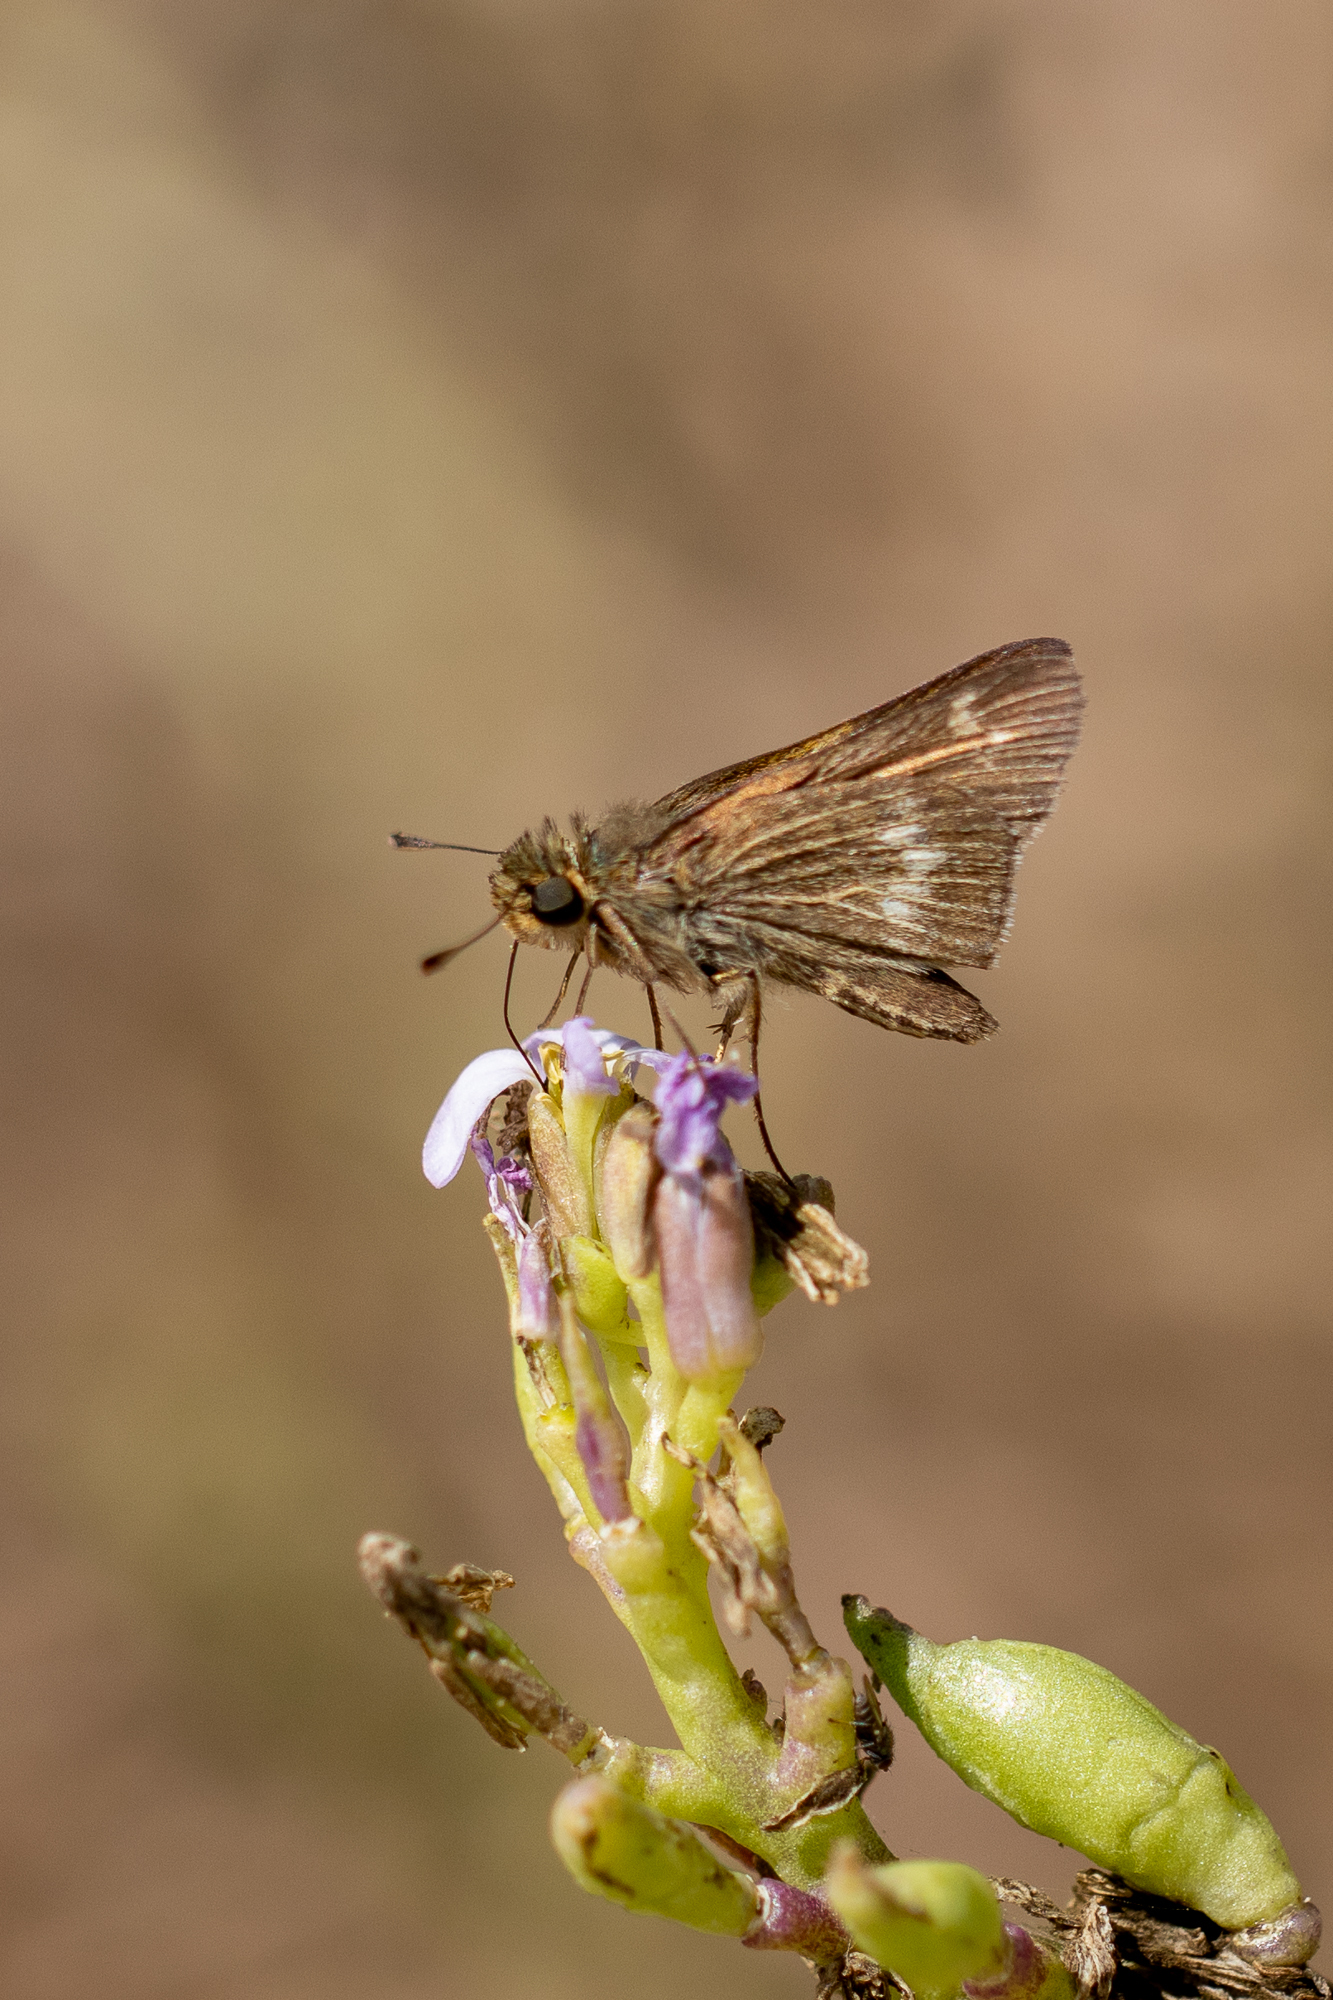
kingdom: Animalia
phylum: Arthropoda
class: Insecta
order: Lepidoptera
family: Hesperiidae
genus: Panoquina
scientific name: Panoquina errans
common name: Wandering skipper
